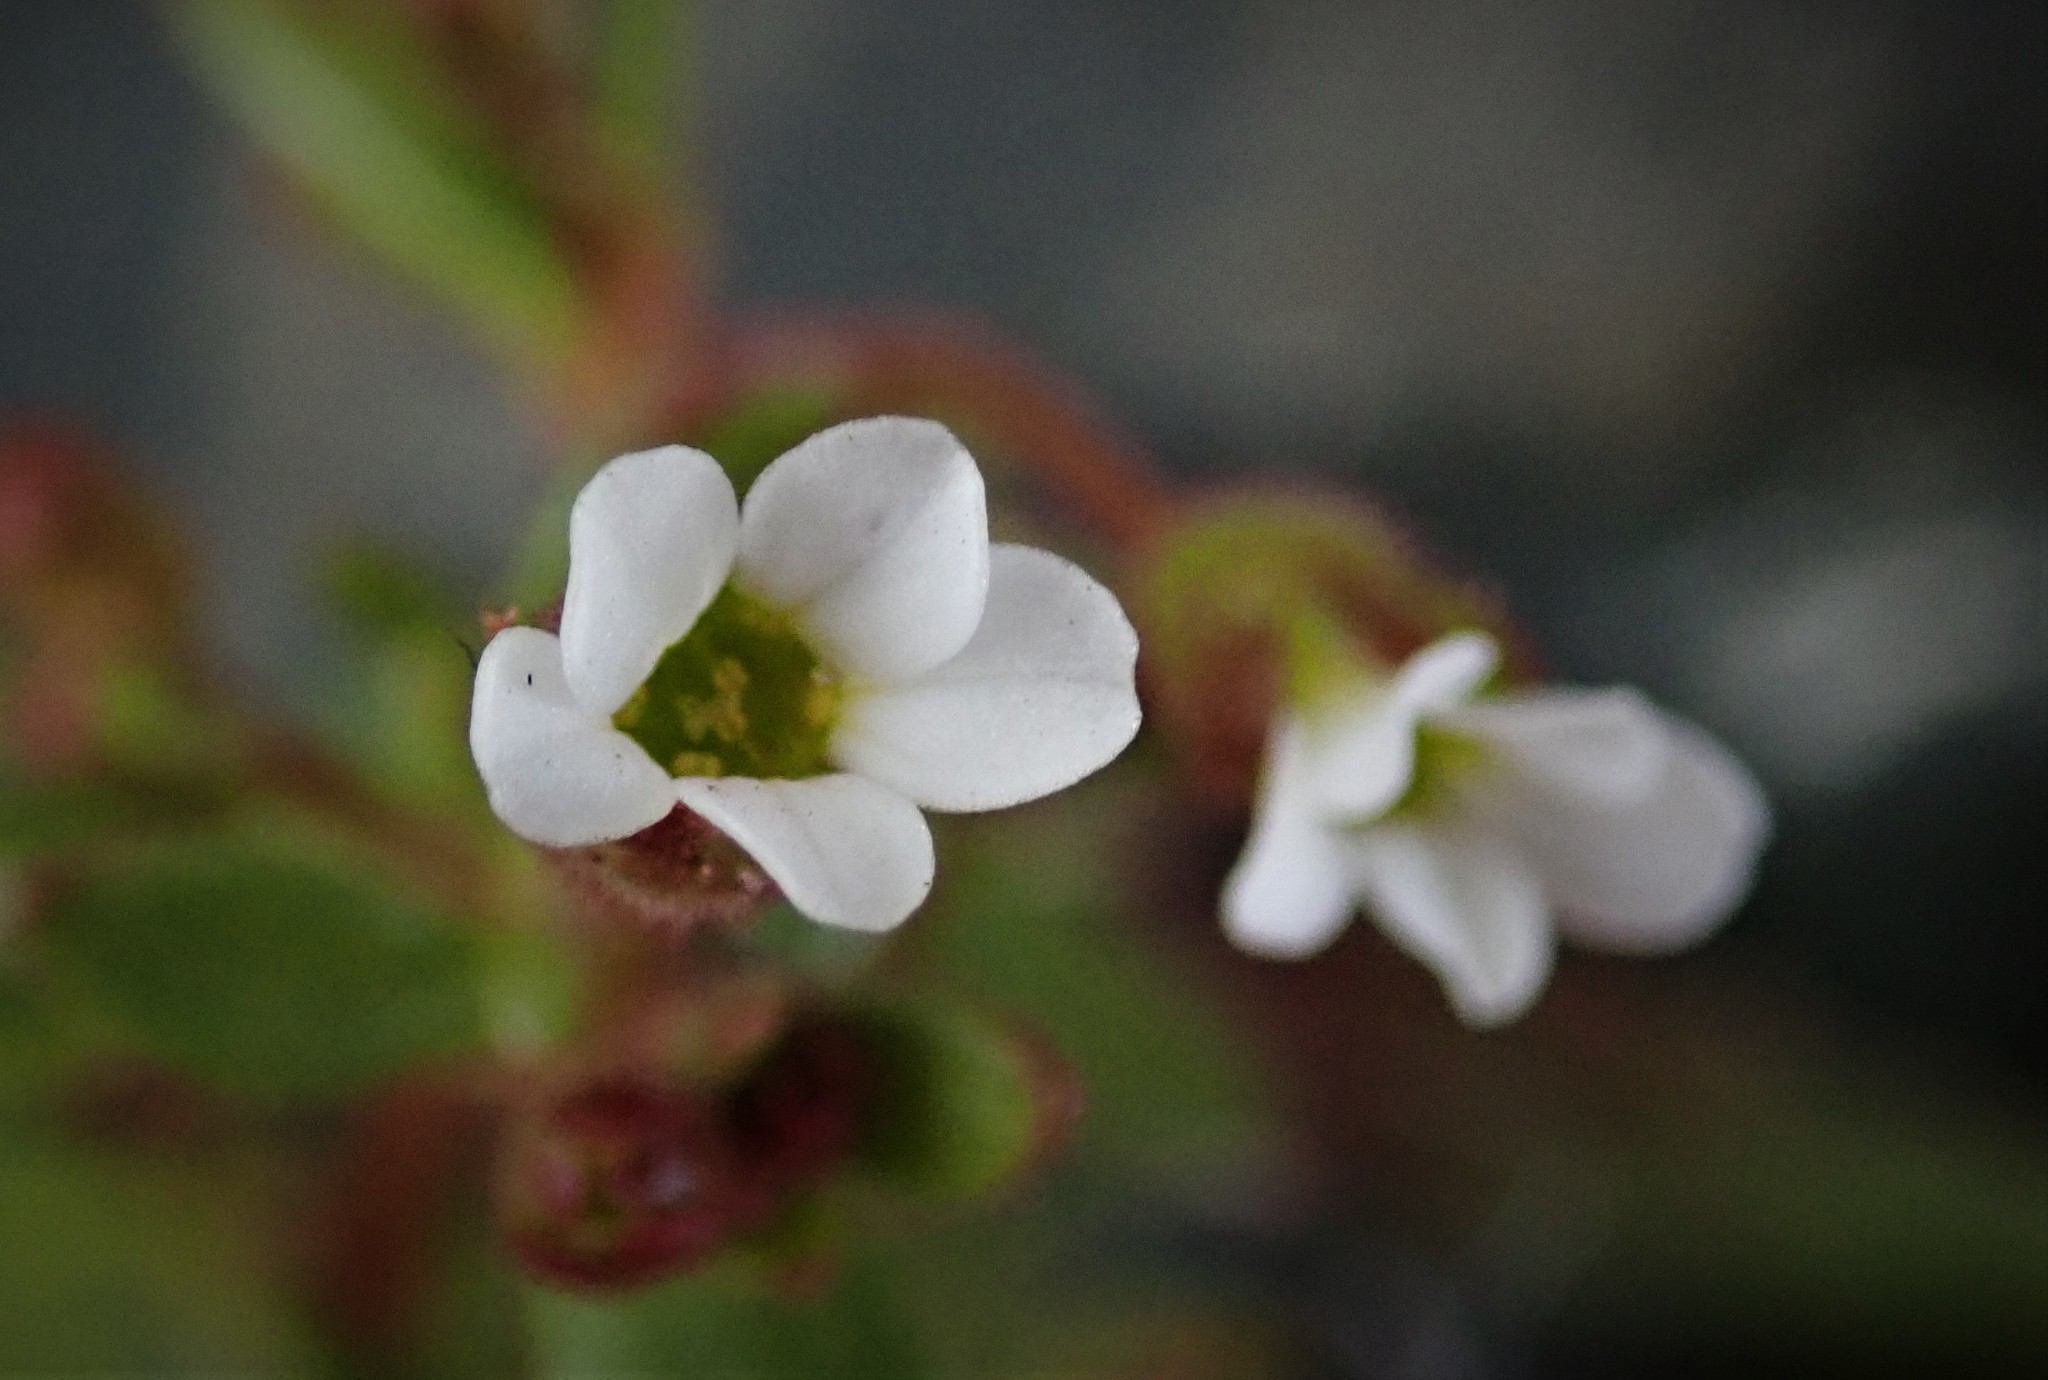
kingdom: Plantae
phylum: Tracheophyta
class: Magnoliopsida
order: Saxifragales
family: Saxifragaceae
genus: Saxifraga
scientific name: Saxifraga tridactylites
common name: Rue-leaved saxifrage
